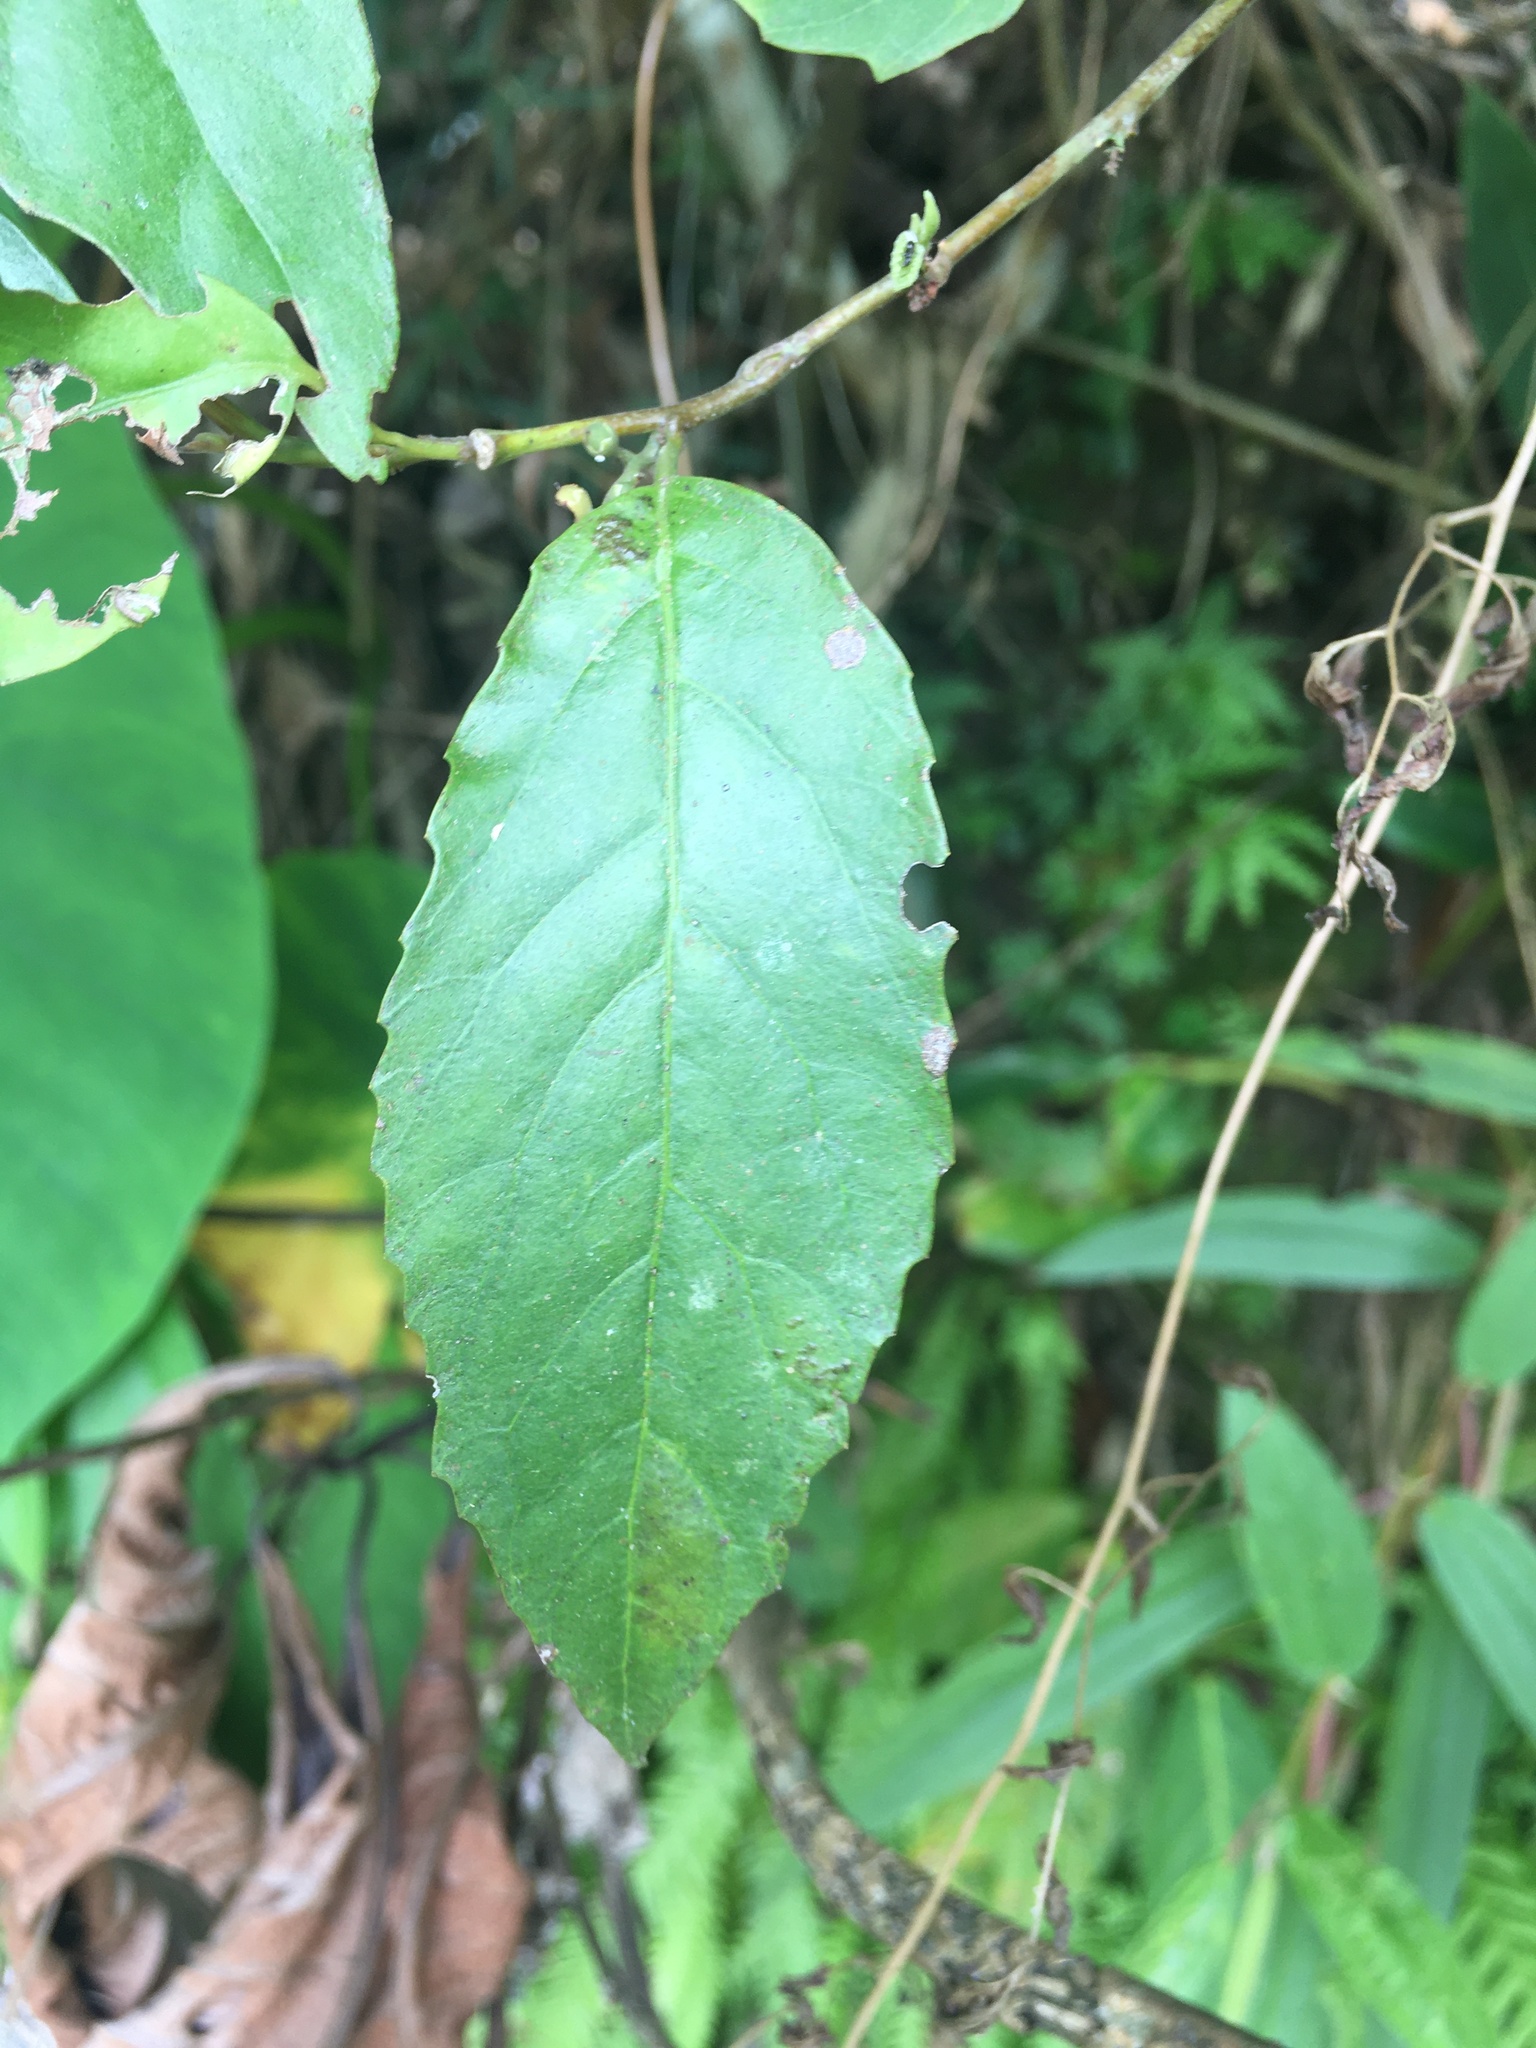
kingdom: Plantae
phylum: Tracheophyta
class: Magnoliopsida
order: Ericales
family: Primulaceae
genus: Maesa
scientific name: Maesa perlaria
